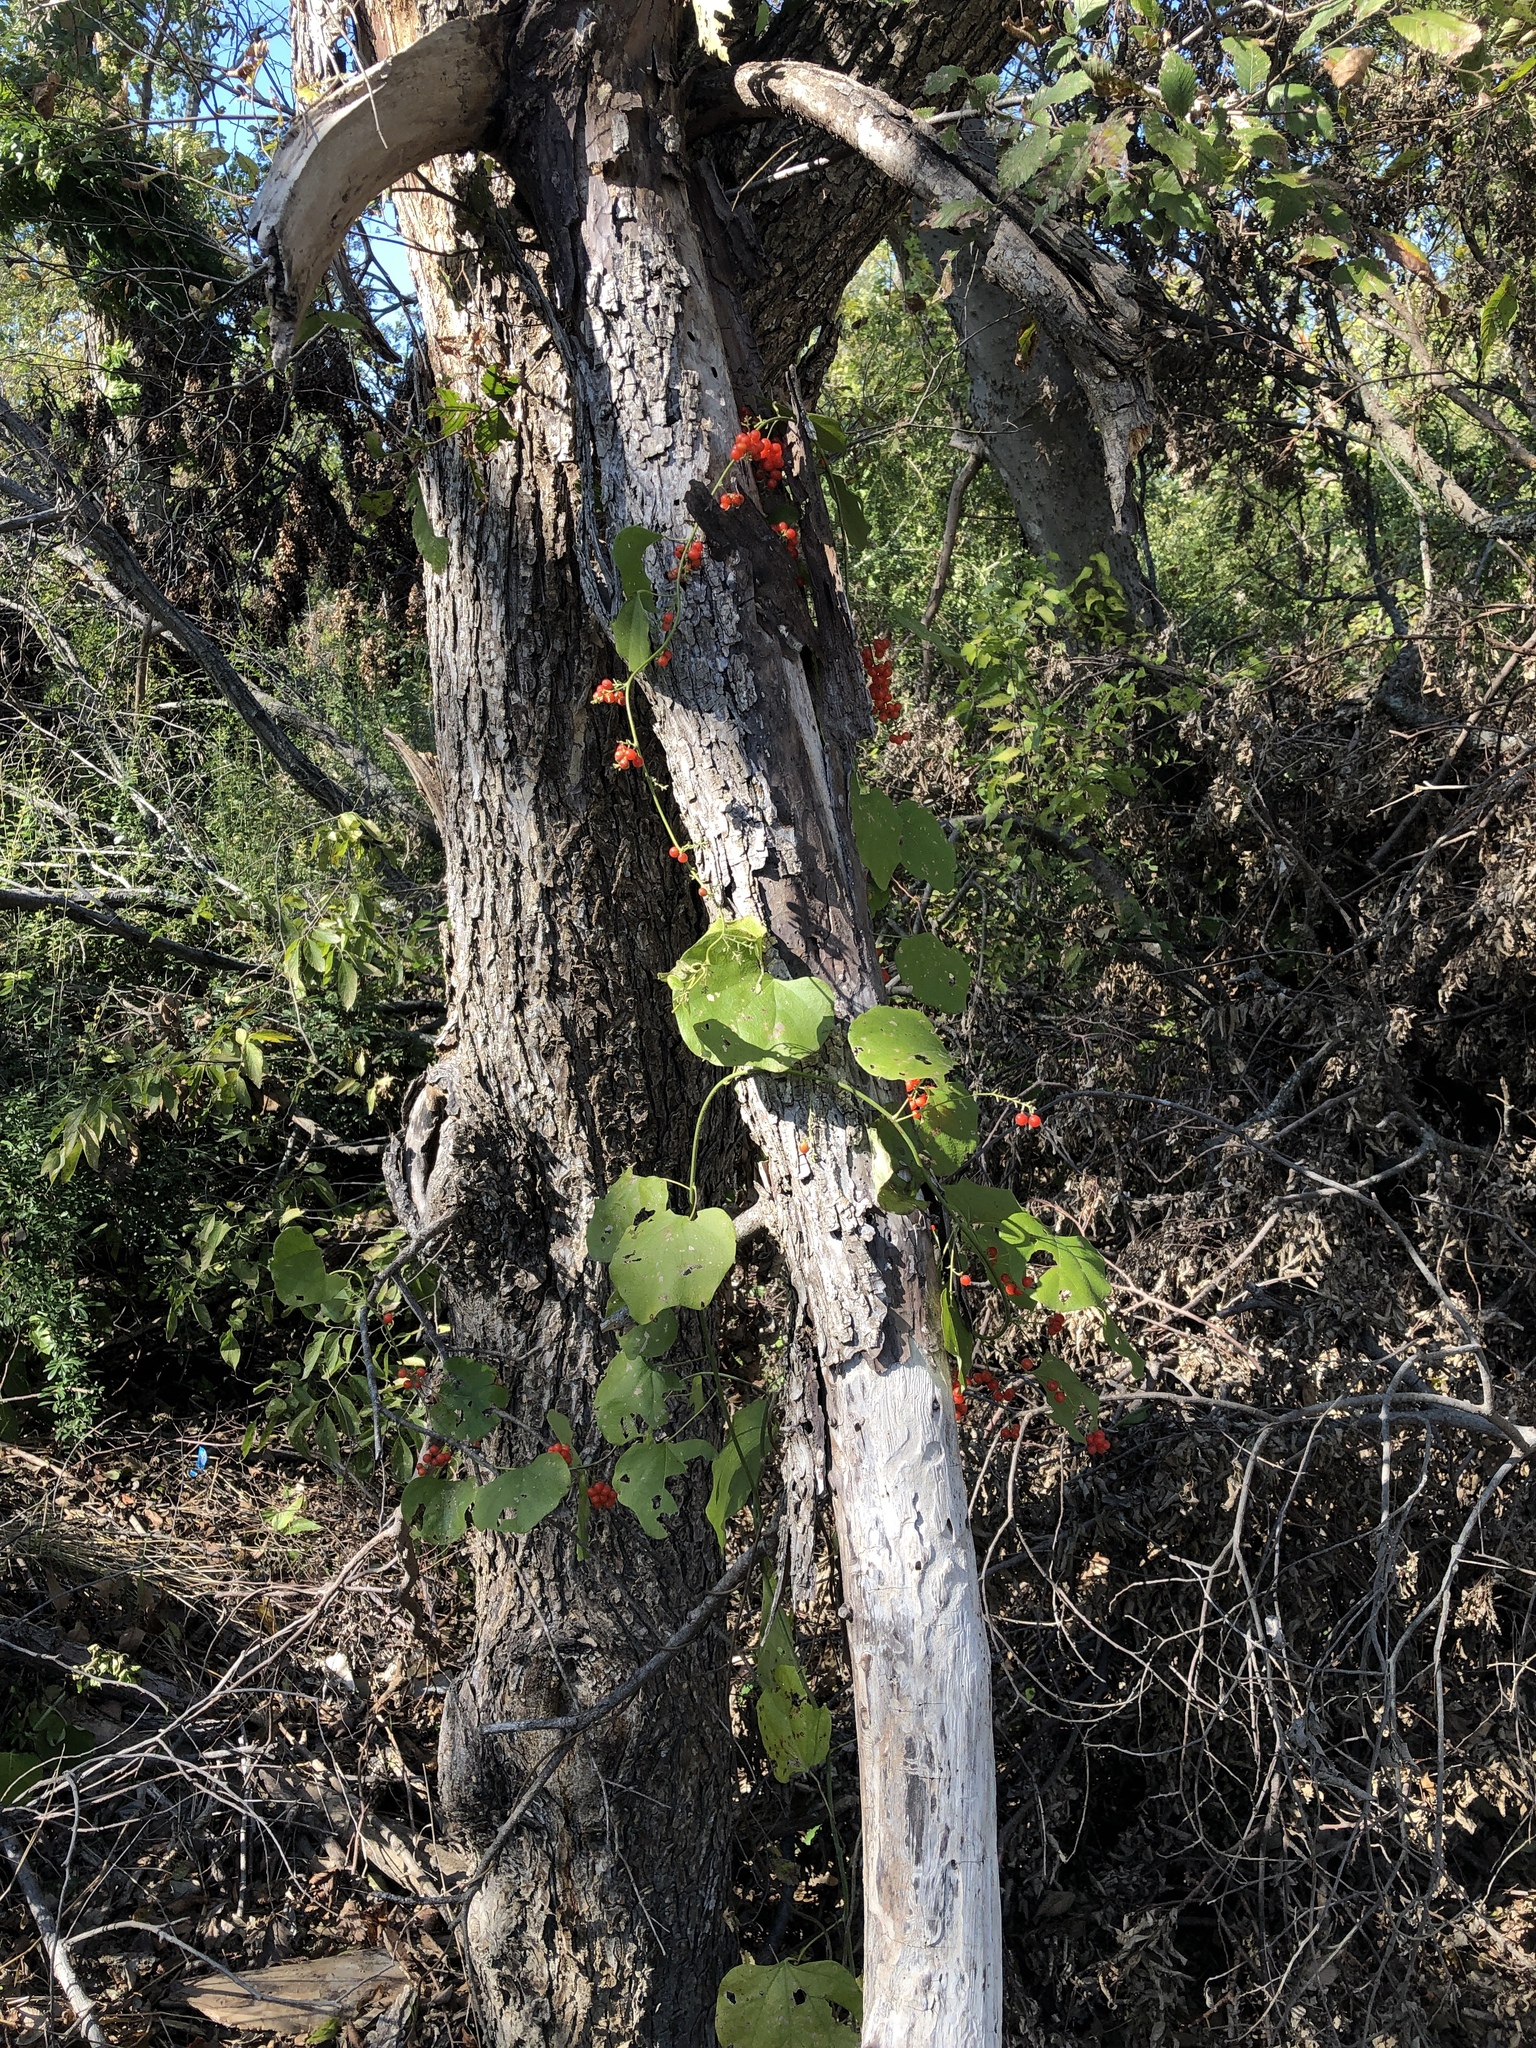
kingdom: Plantae
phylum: Tracheophyta
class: Magnoliopsida
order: Ranunculales
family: Menispermaceae
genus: Cocculus
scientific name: Cocculus carolinus
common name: Carolina moonseed
